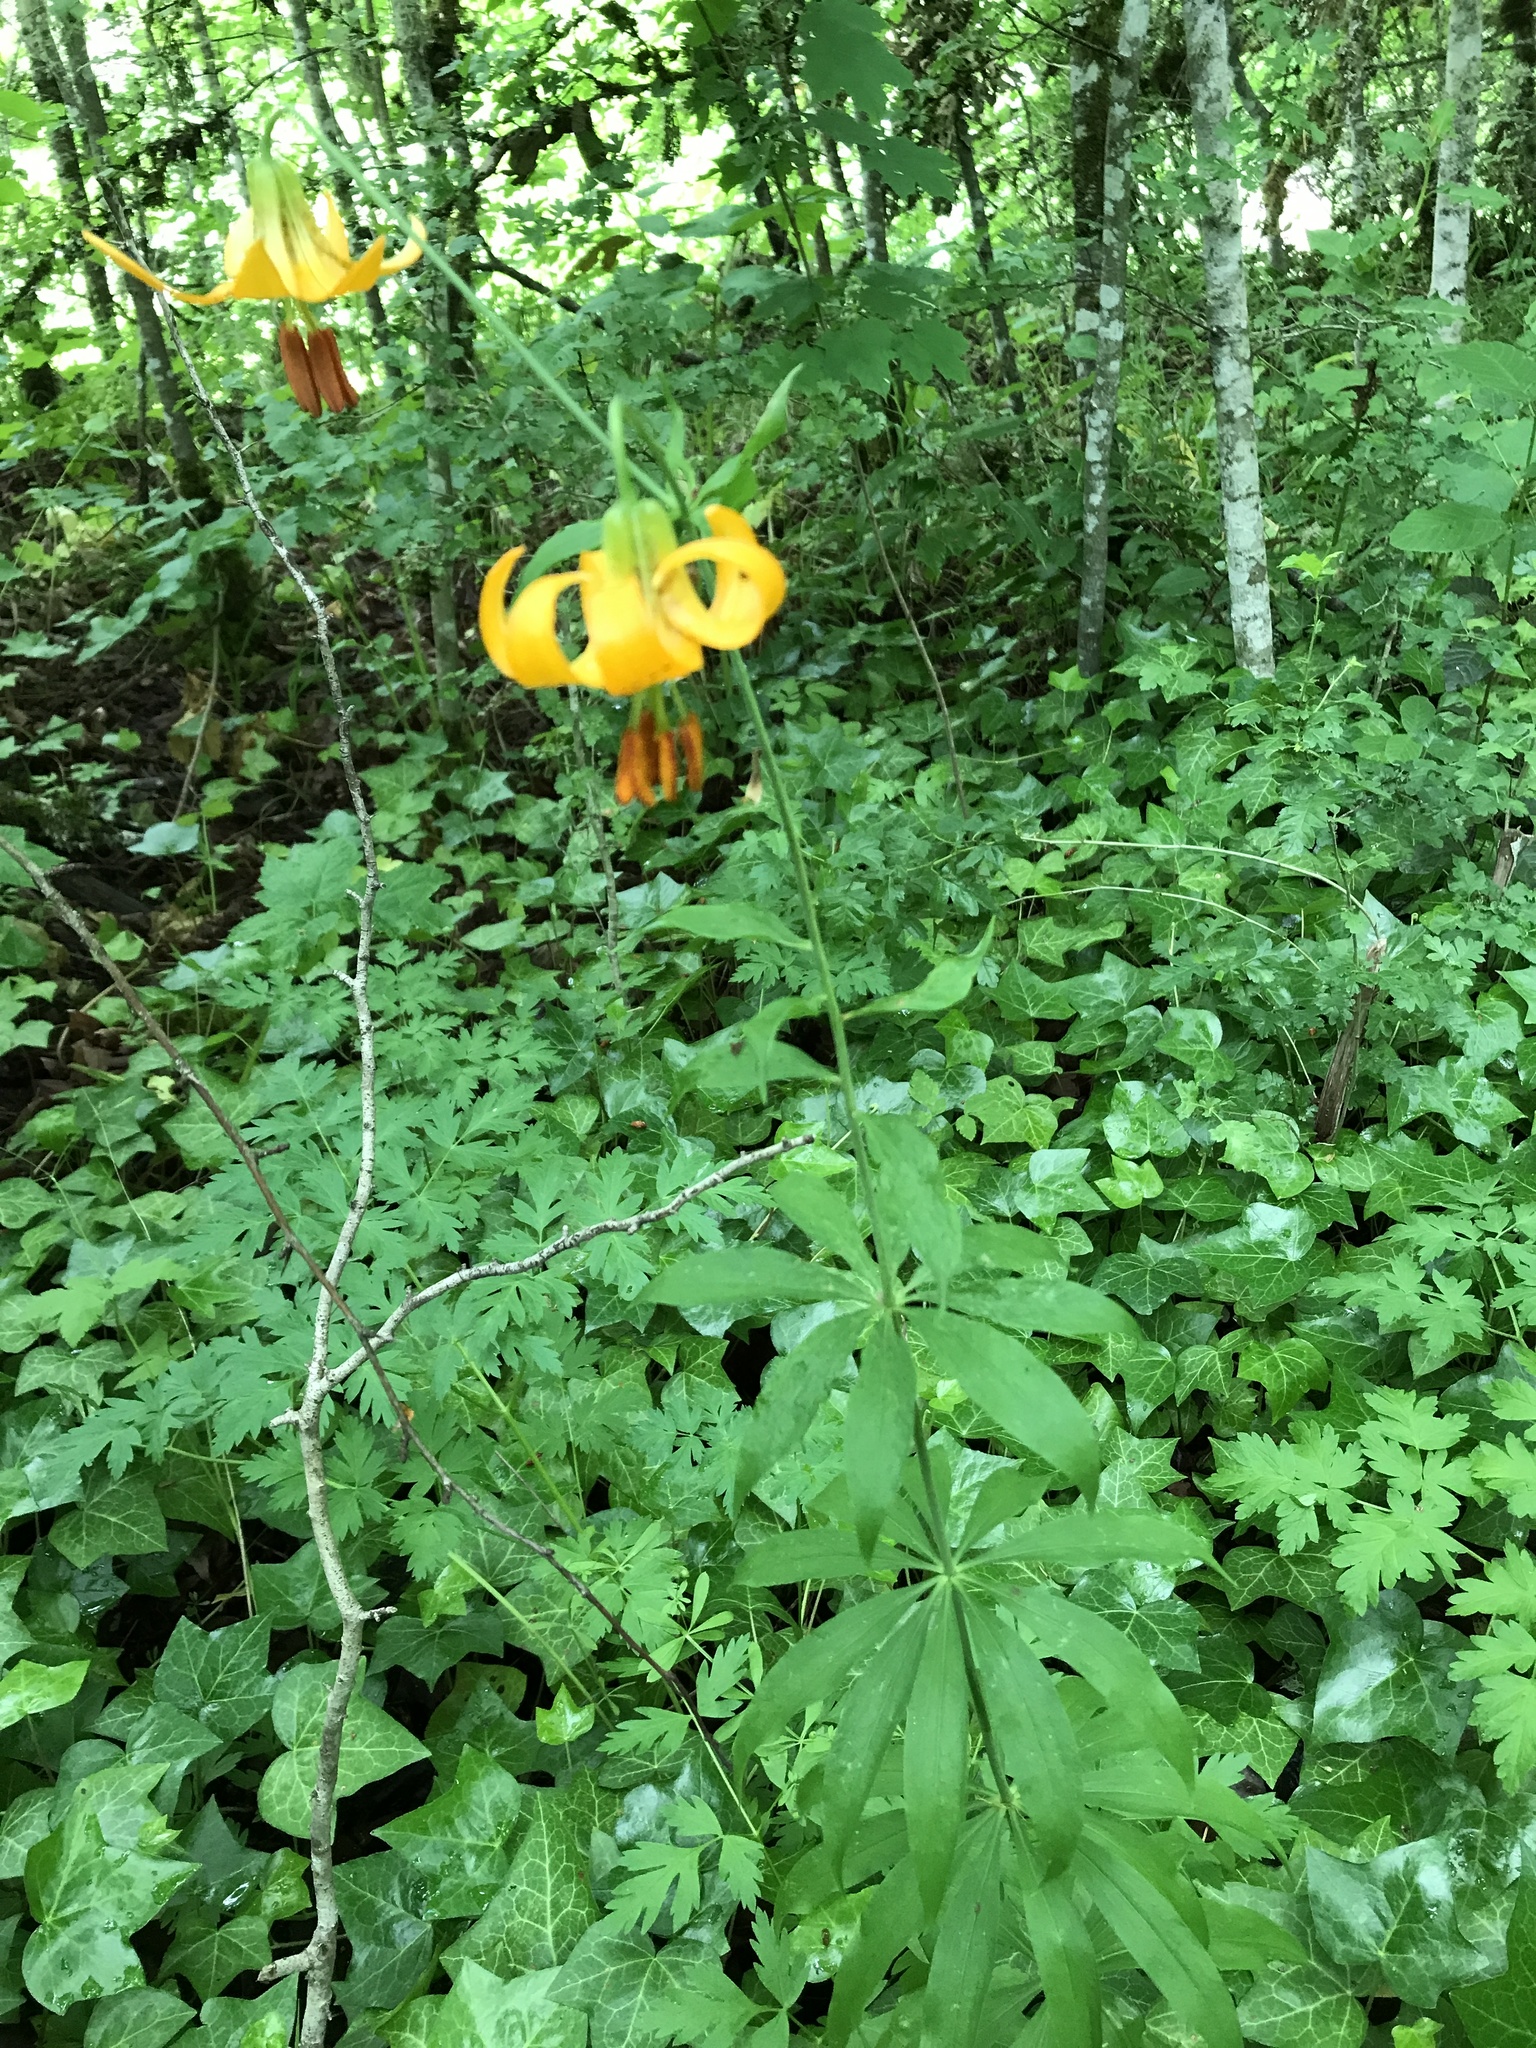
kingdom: Plantae
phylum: Tracheophyta
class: Liliopsida
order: Liliales
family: Liliaceae
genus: Lilium
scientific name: Lilium columbianum
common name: Columbia lily
